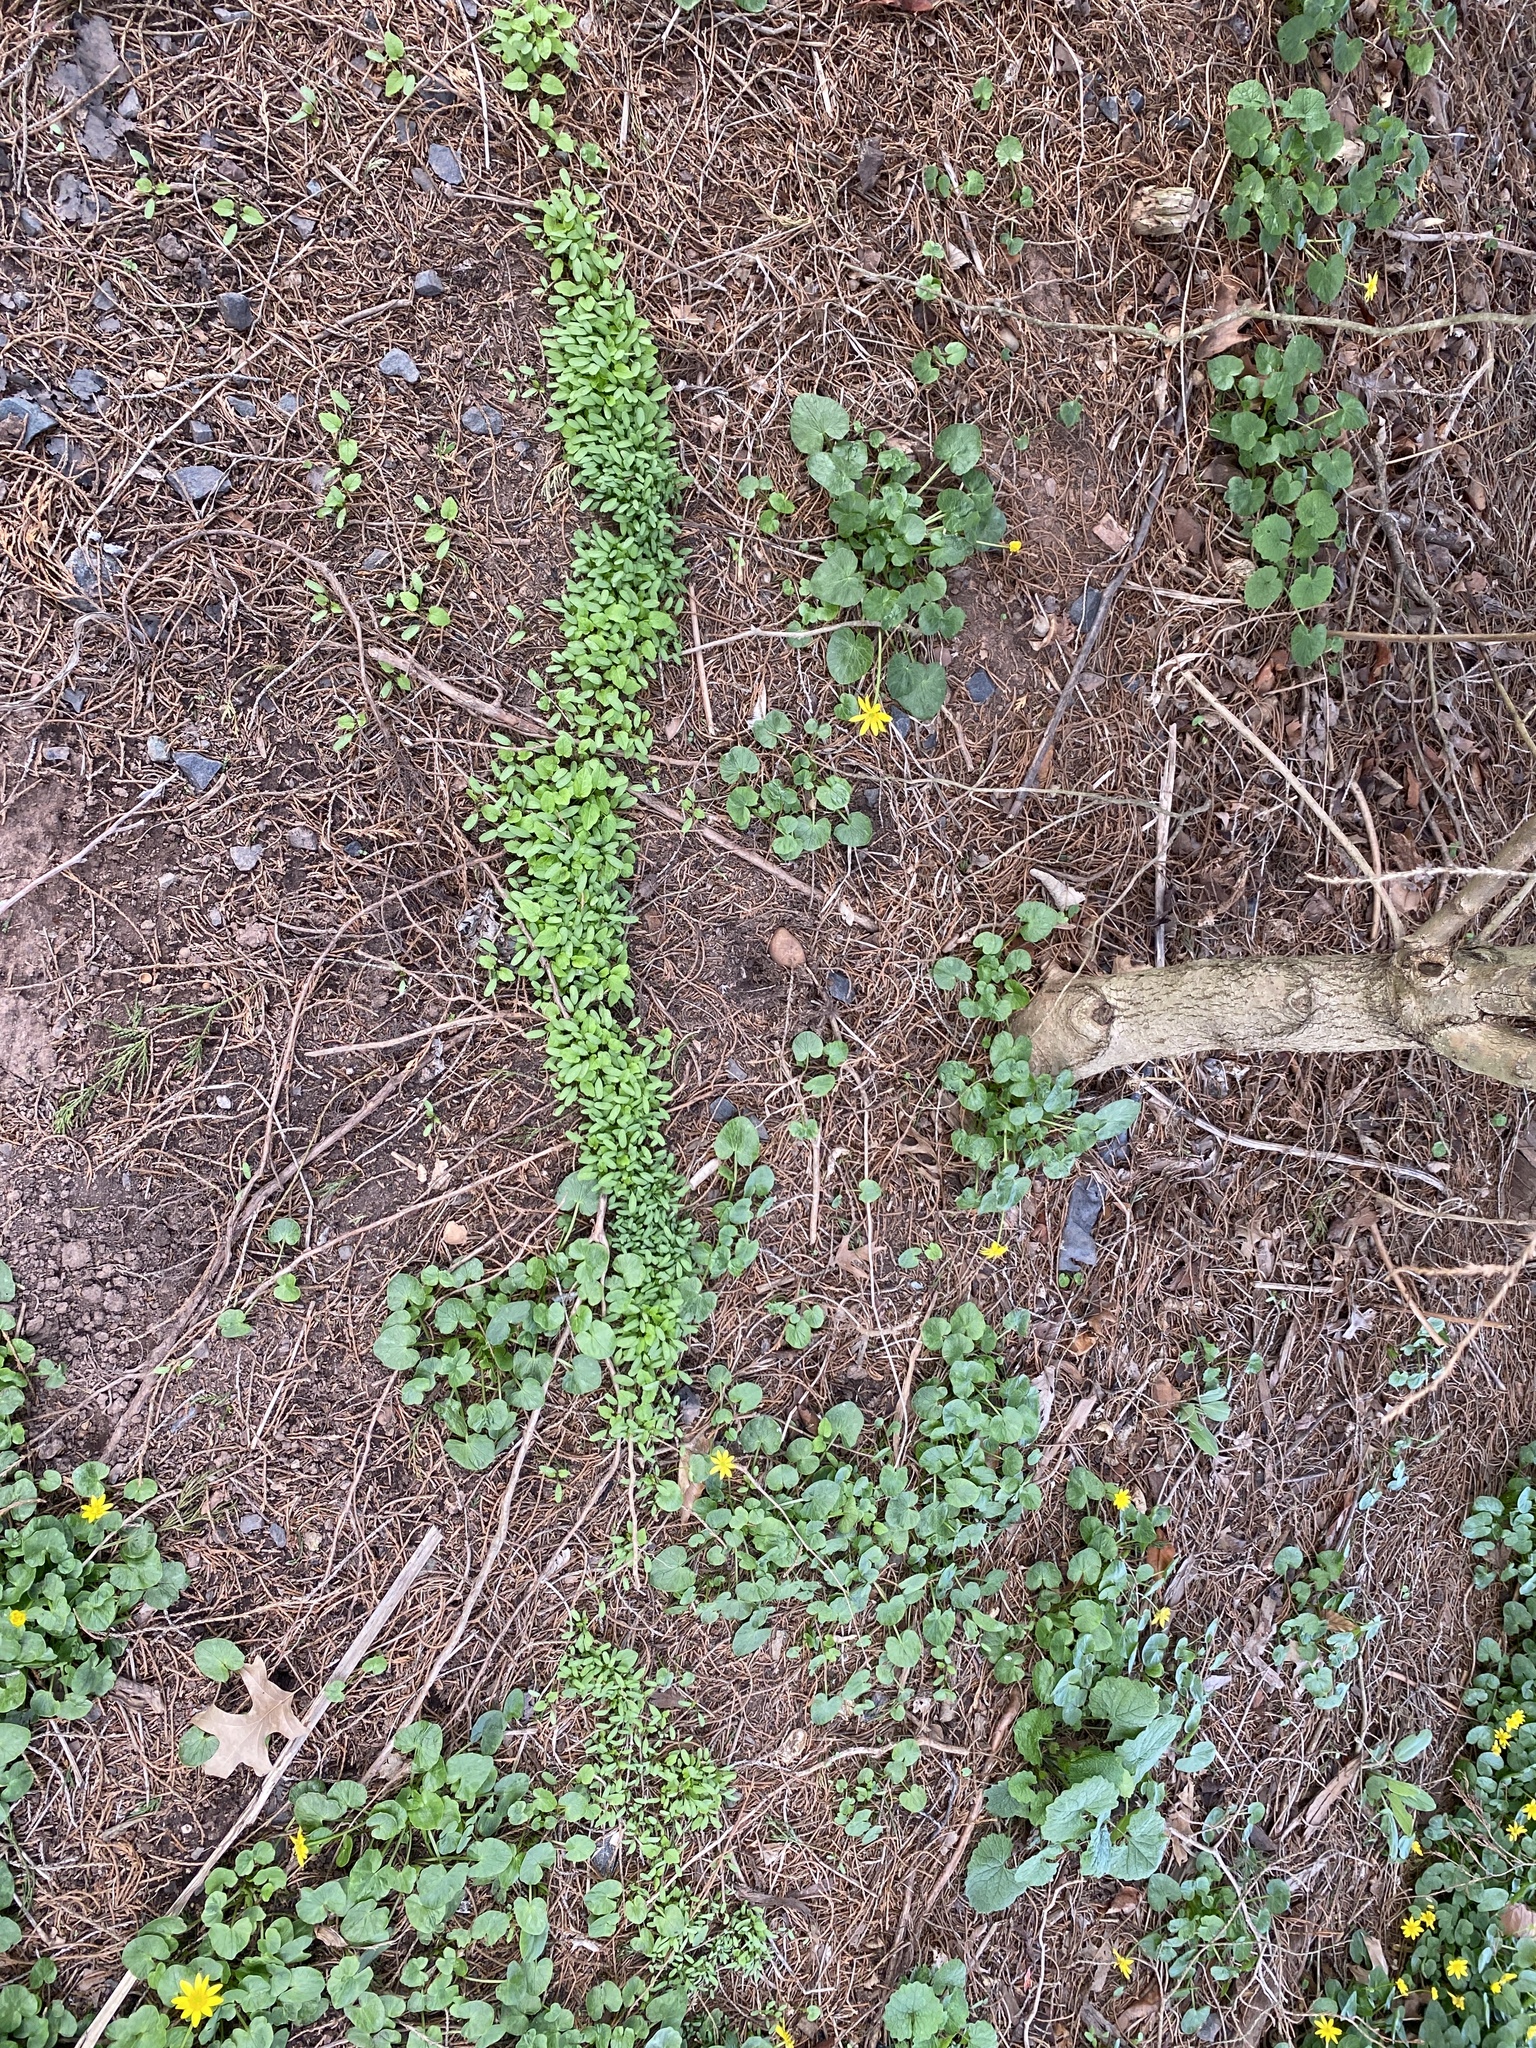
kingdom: Plantae
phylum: Tracheophyta
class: Magnoliopsida
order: Brassicales
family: Brassicaceae
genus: Alliaria
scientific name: Alliaria petiolata
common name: Garlic mustard
